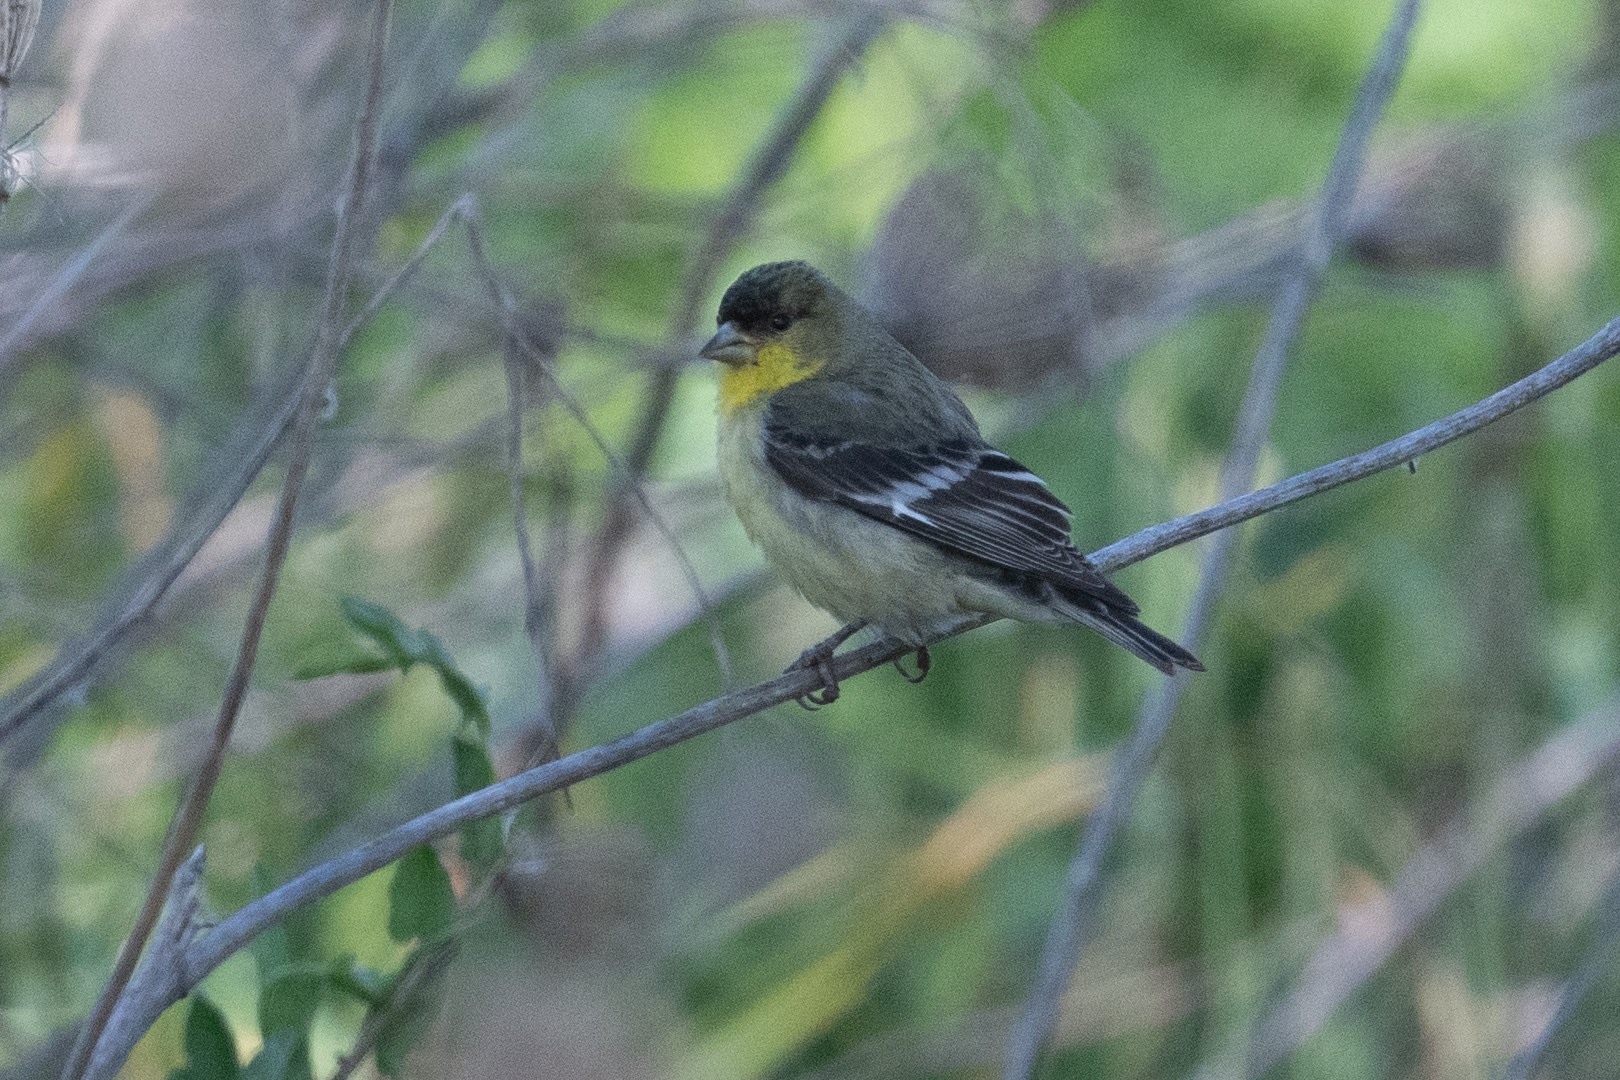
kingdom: Animalia
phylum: Chordata
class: Aves
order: Passeriformes
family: Fringillidae
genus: Spinus
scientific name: Spinus psaltria
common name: Lesser goldfinch
